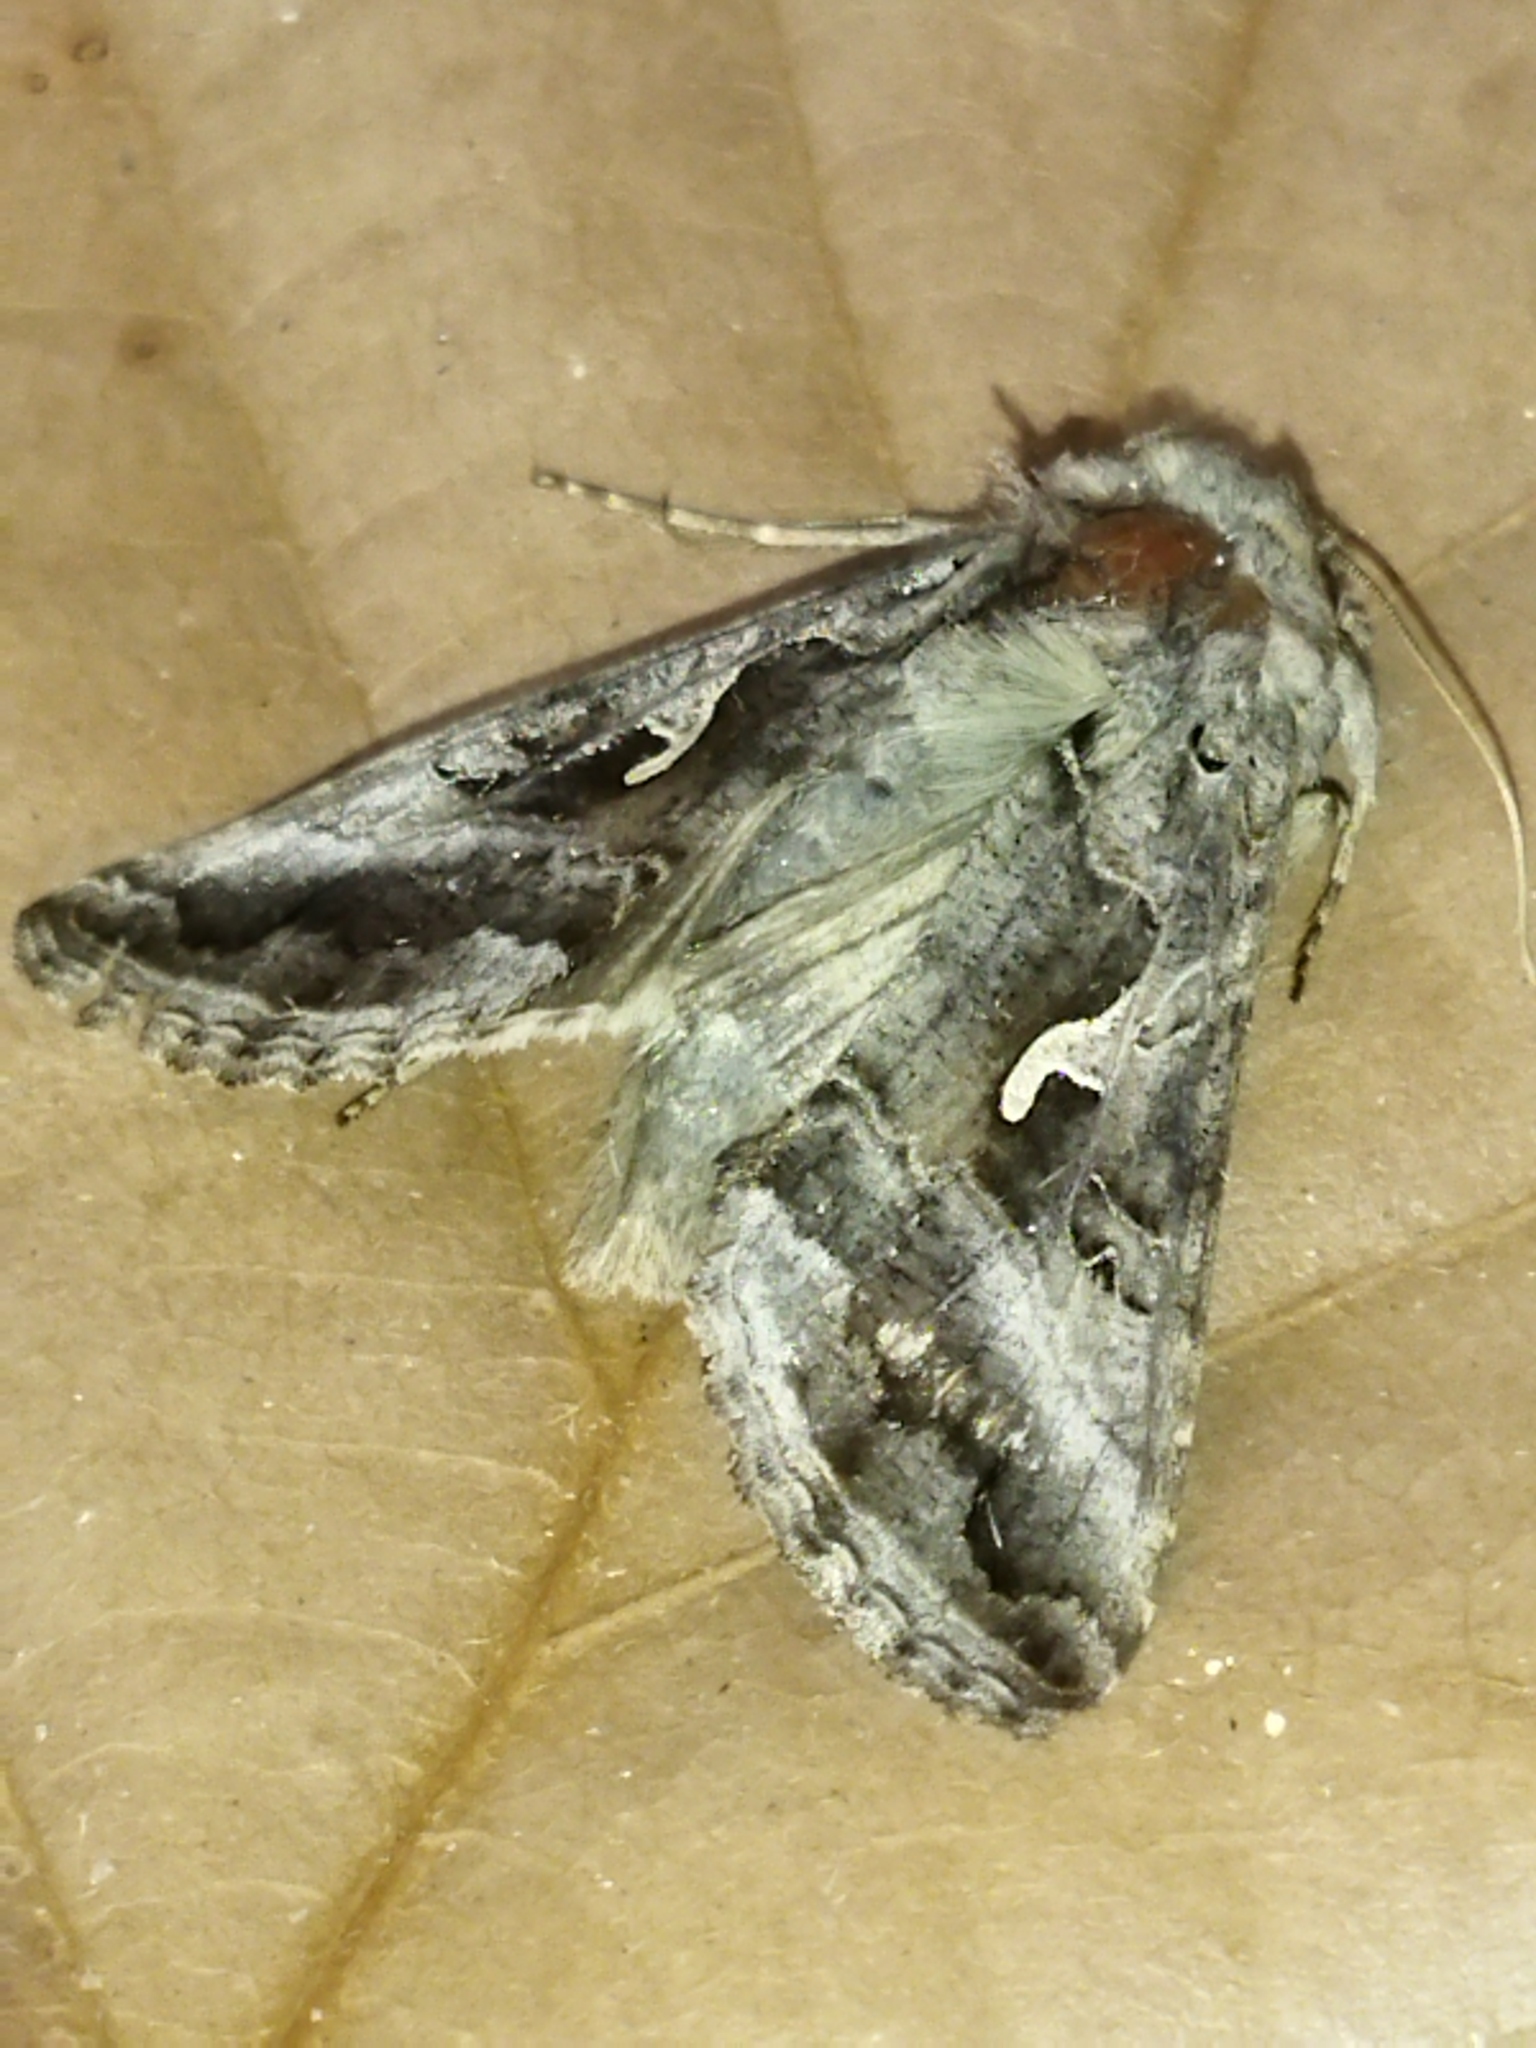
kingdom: Animalia
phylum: Arthropoda
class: Insecta
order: Lepidoptera
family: Noctuidae
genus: Autographa
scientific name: Autographa gamma
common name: Silver y
